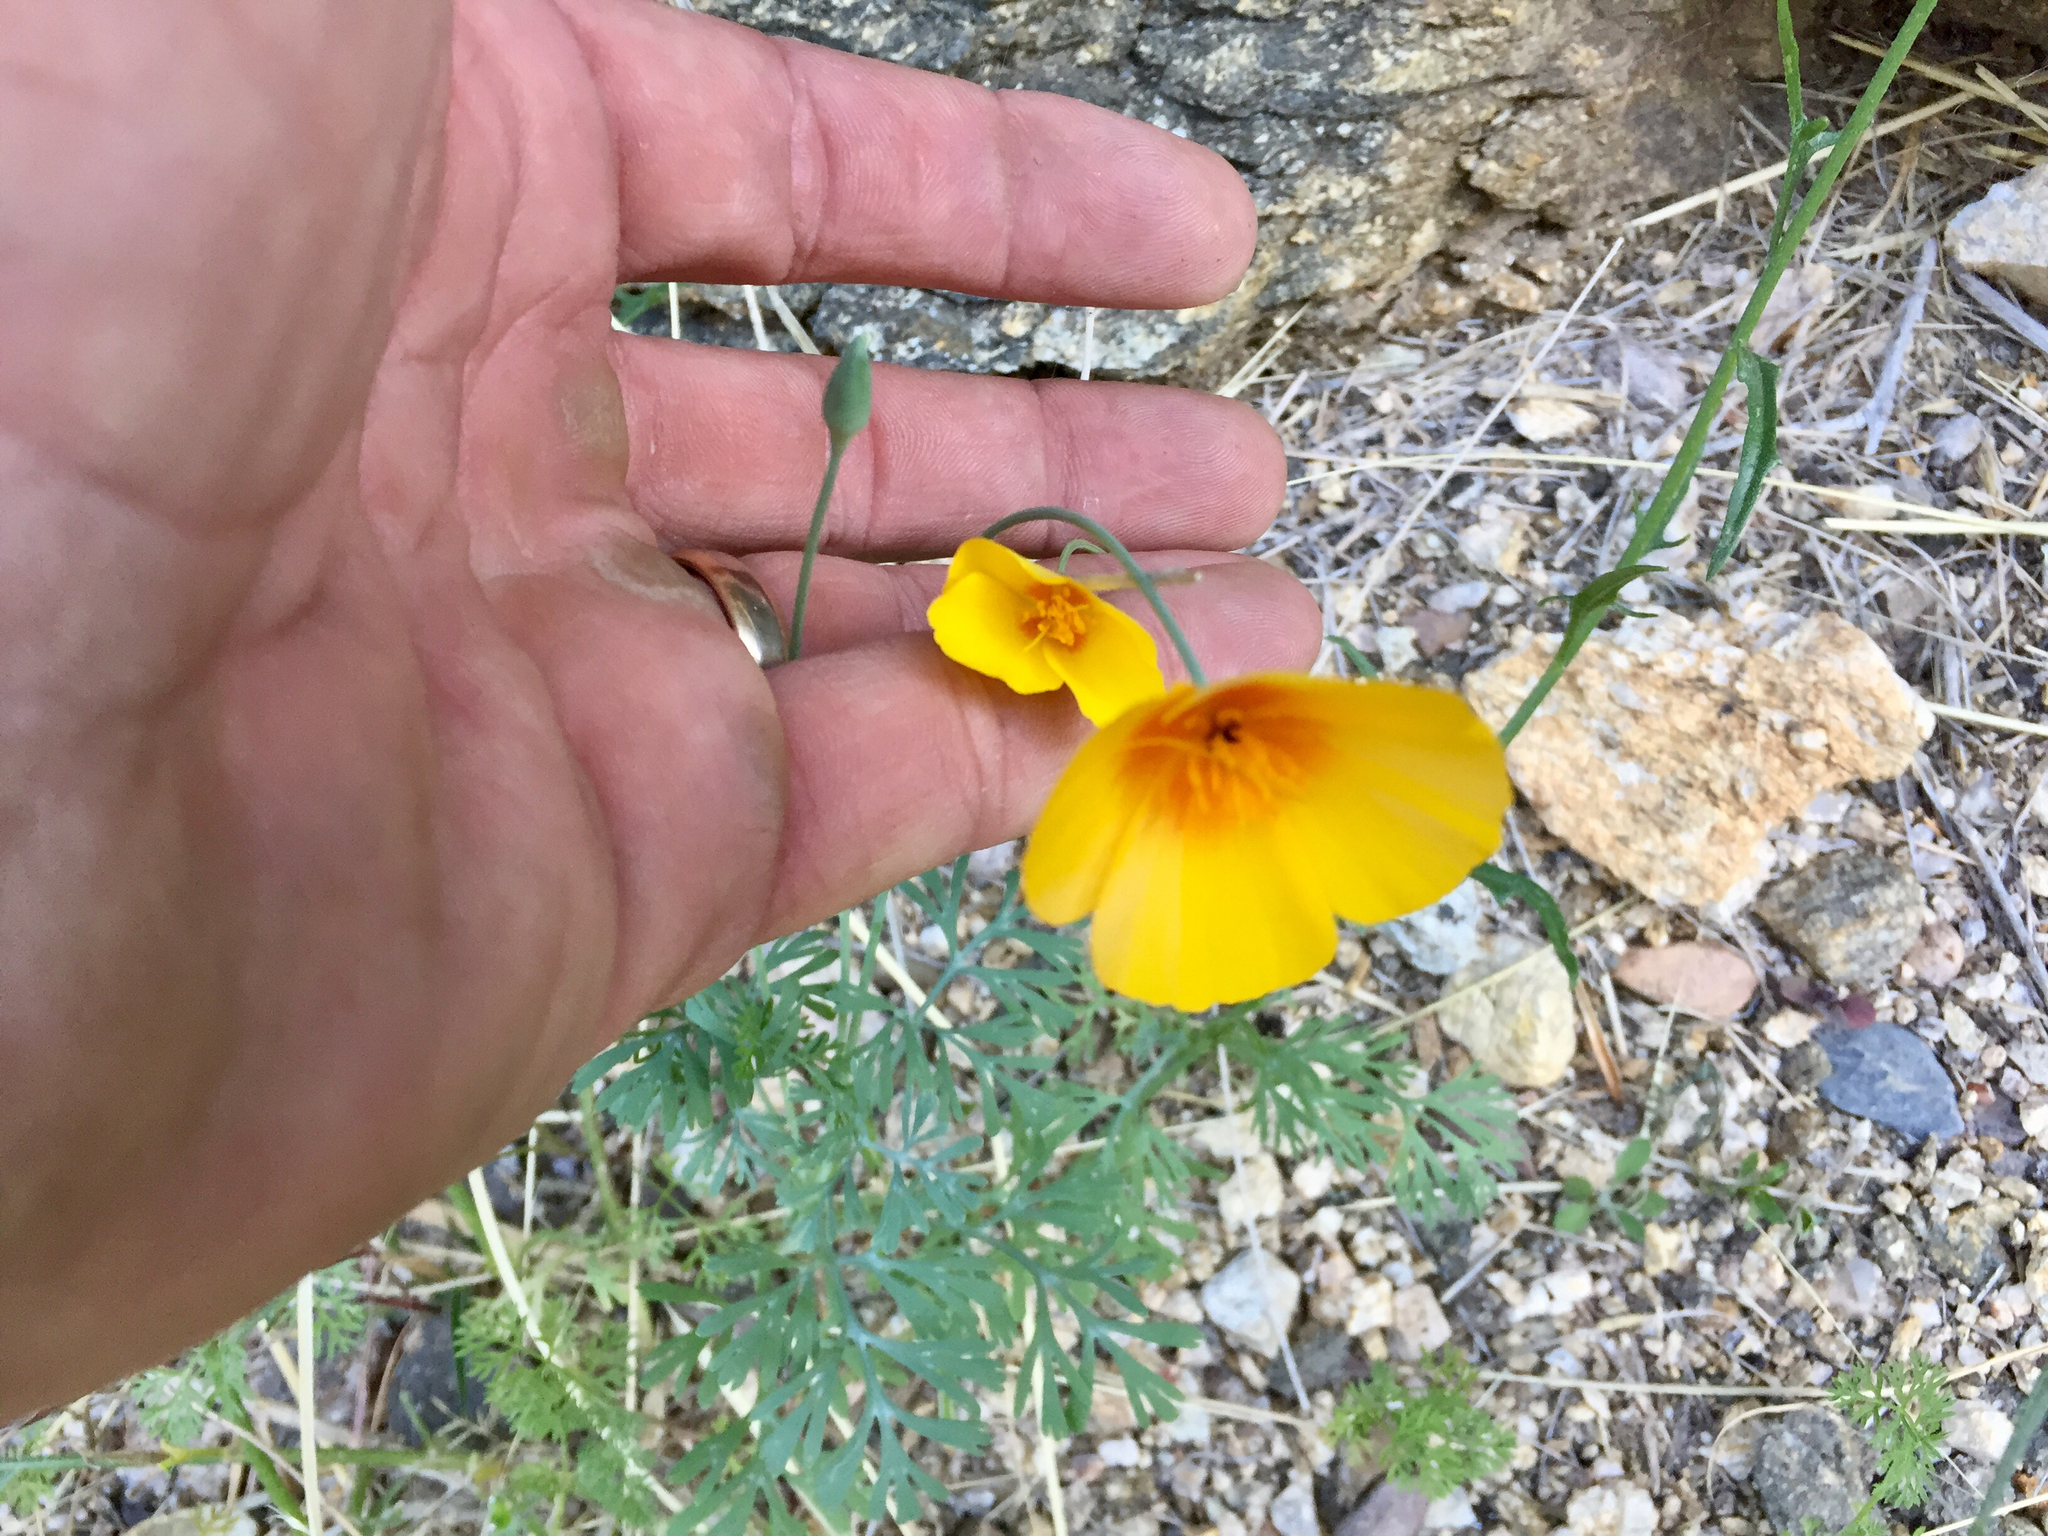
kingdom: Plantae
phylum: Tracheophyta
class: Magnoliopsida
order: Ranunculales
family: Papaveraceae
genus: Eschscholzia
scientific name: Eschscholzia californica
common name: California poppy
